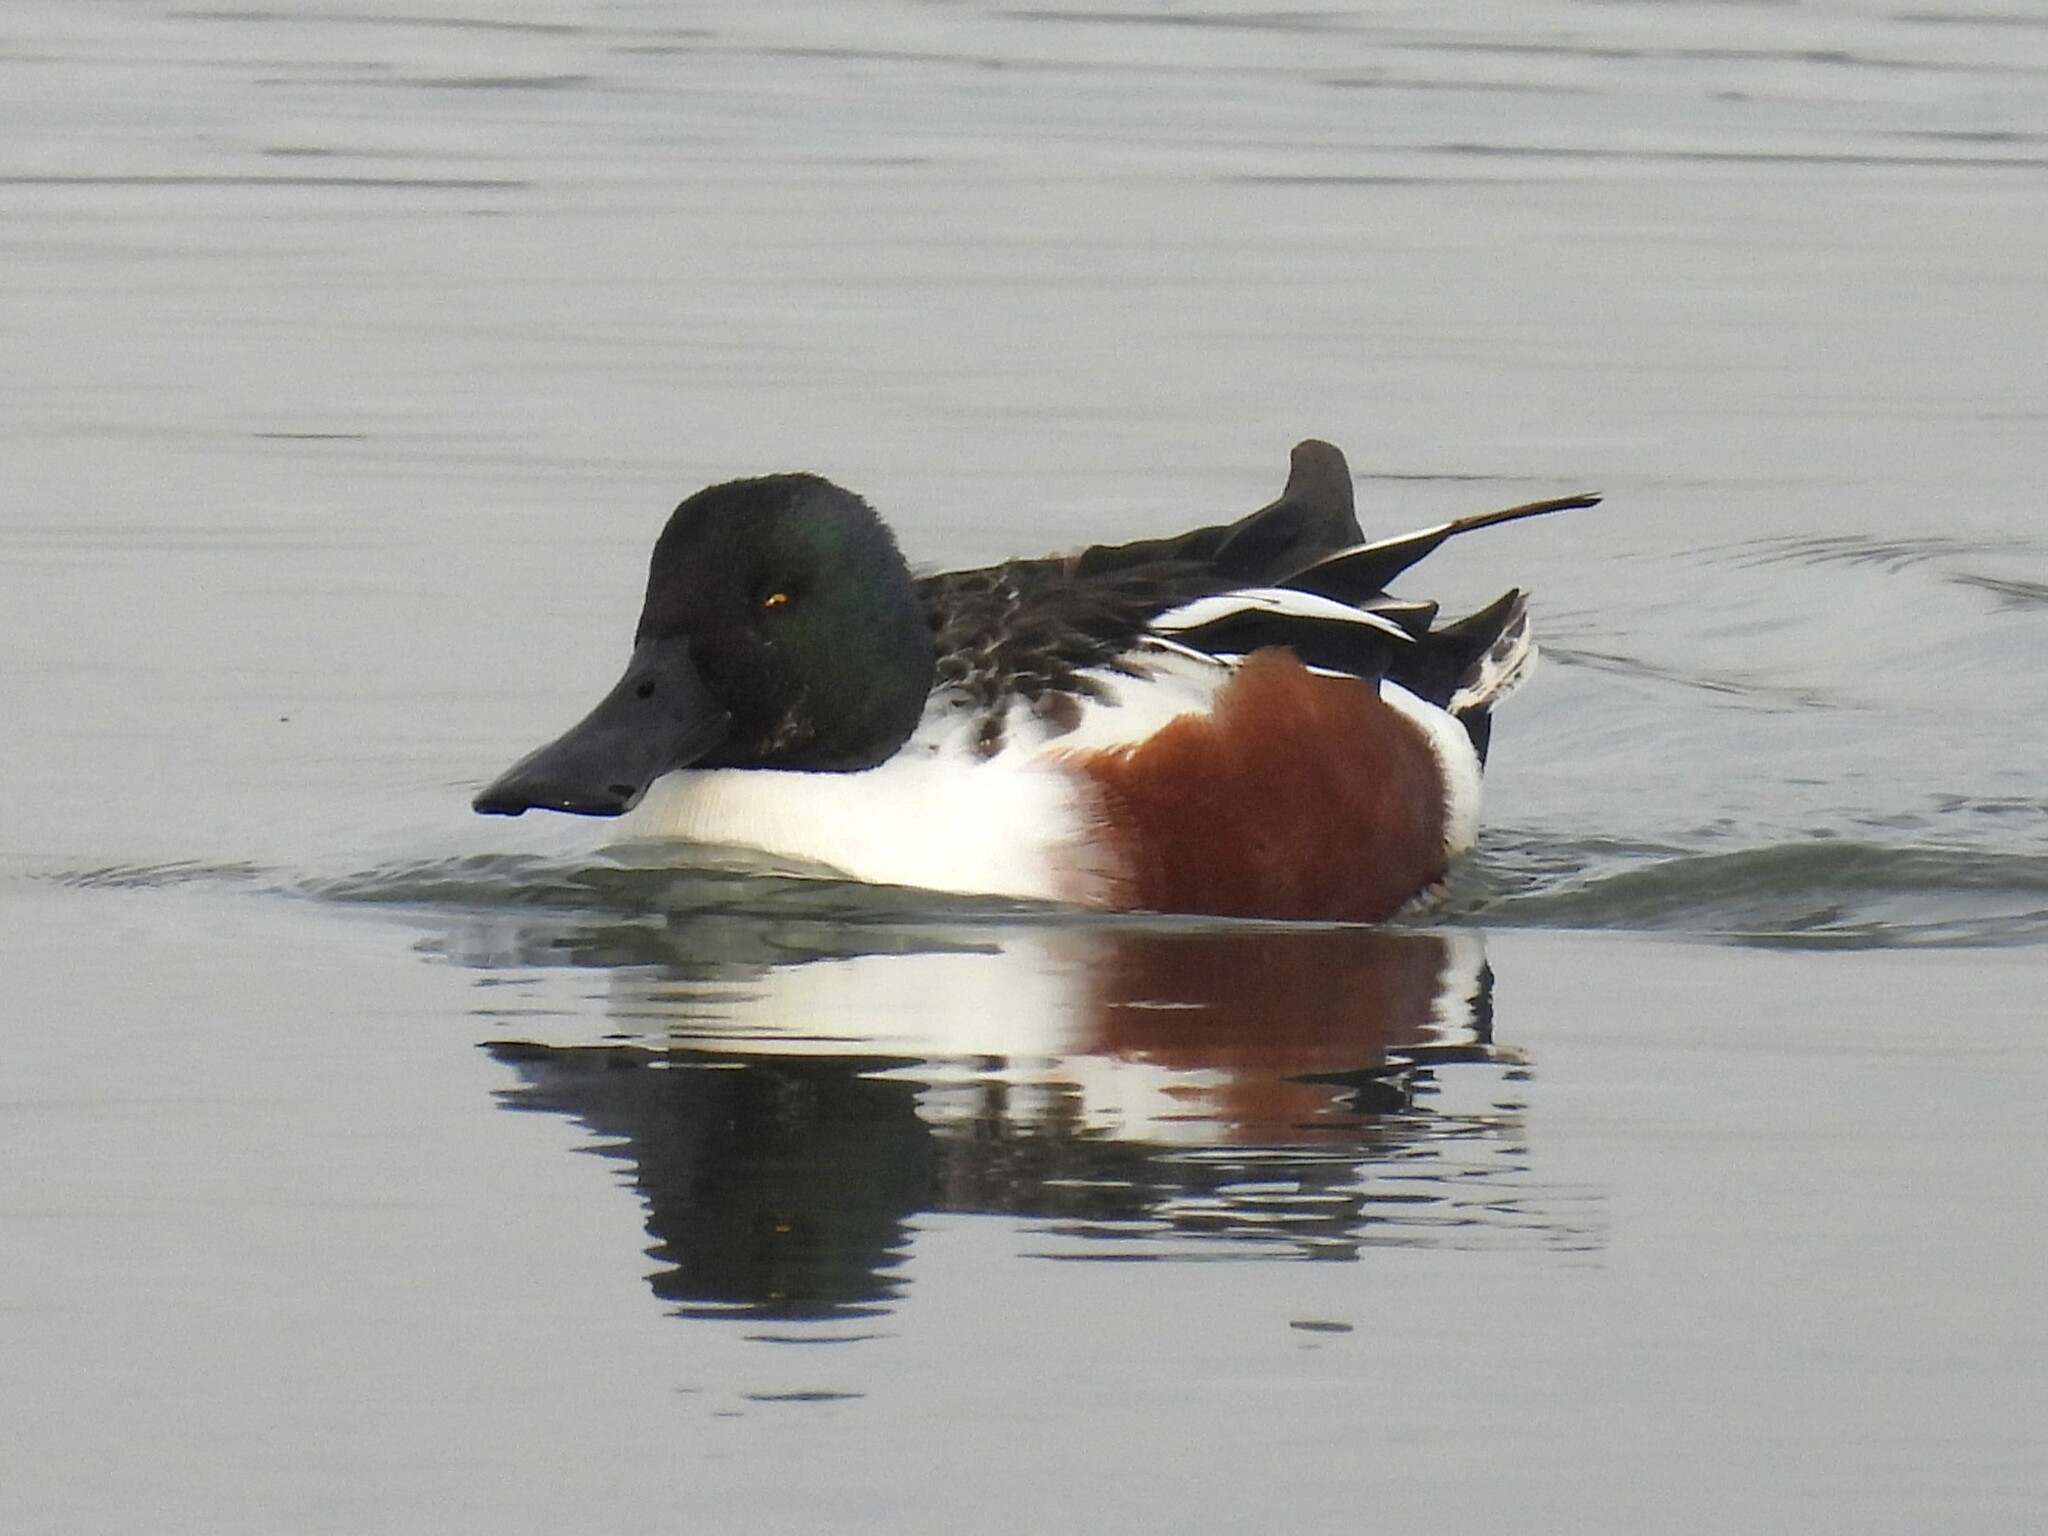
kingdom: Animalia
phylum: Chordata
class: Aves
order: Anseriformes
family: Anatidae
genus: Spatula
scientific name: Spatula clypeata
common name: Northern shoveler
